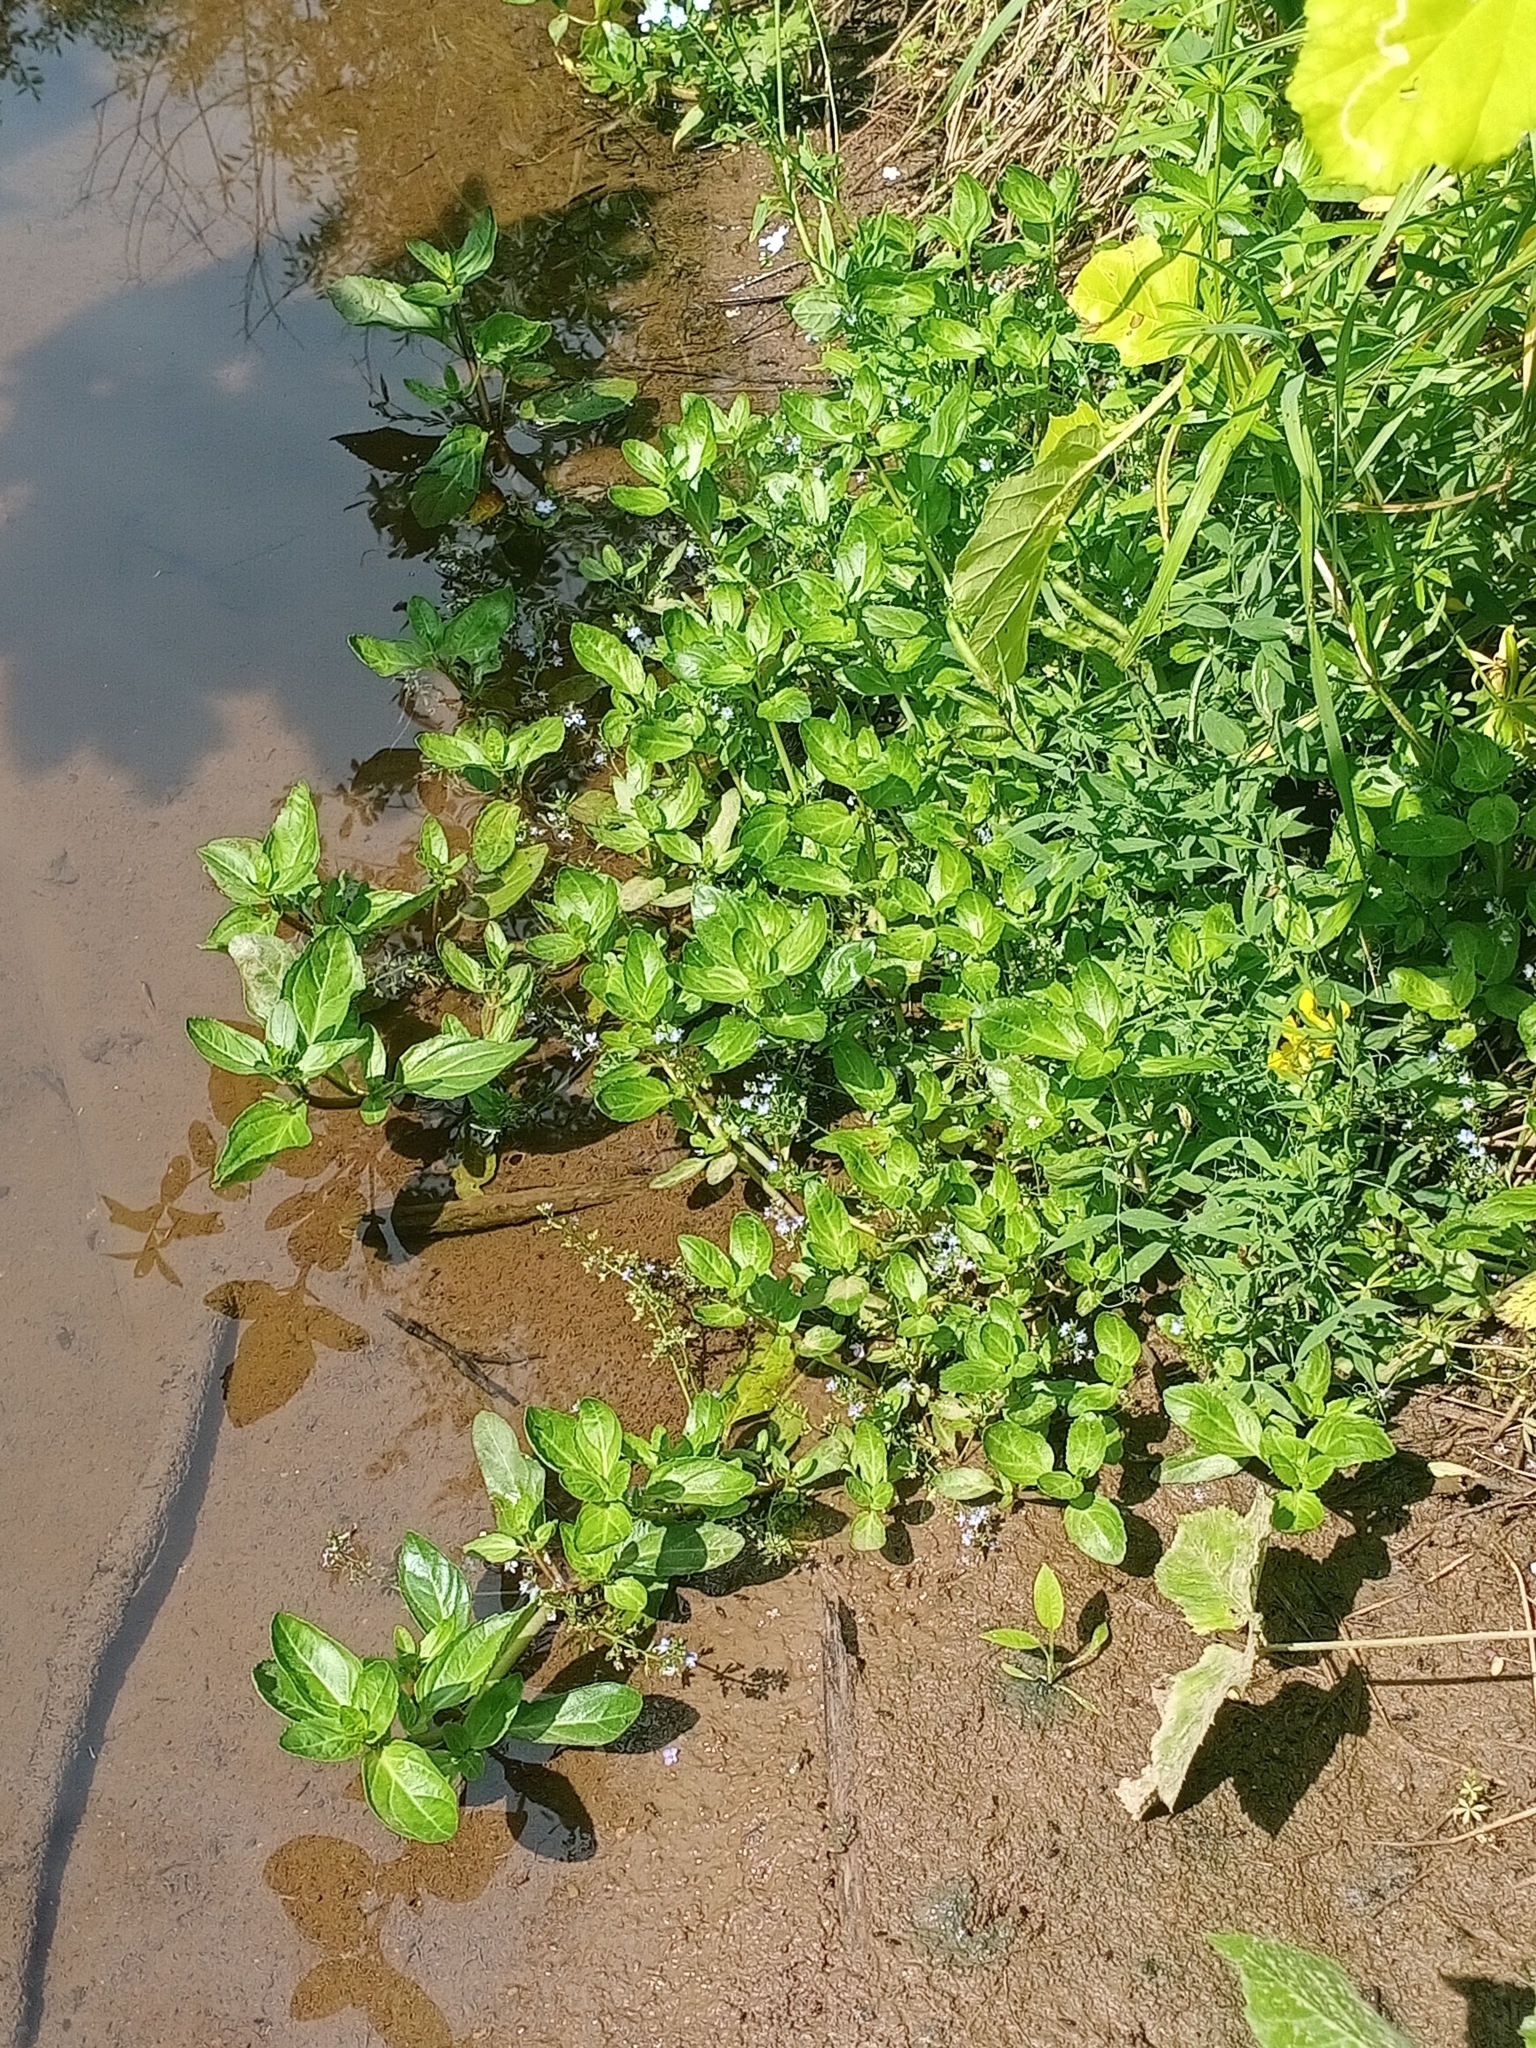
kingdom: Plantae
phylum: Tracheophyta
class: Magnoliopsida
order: Lamiales
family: Plantaginaceae
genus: Veronica
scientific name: Veronica beccabunga
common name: Brooklime
